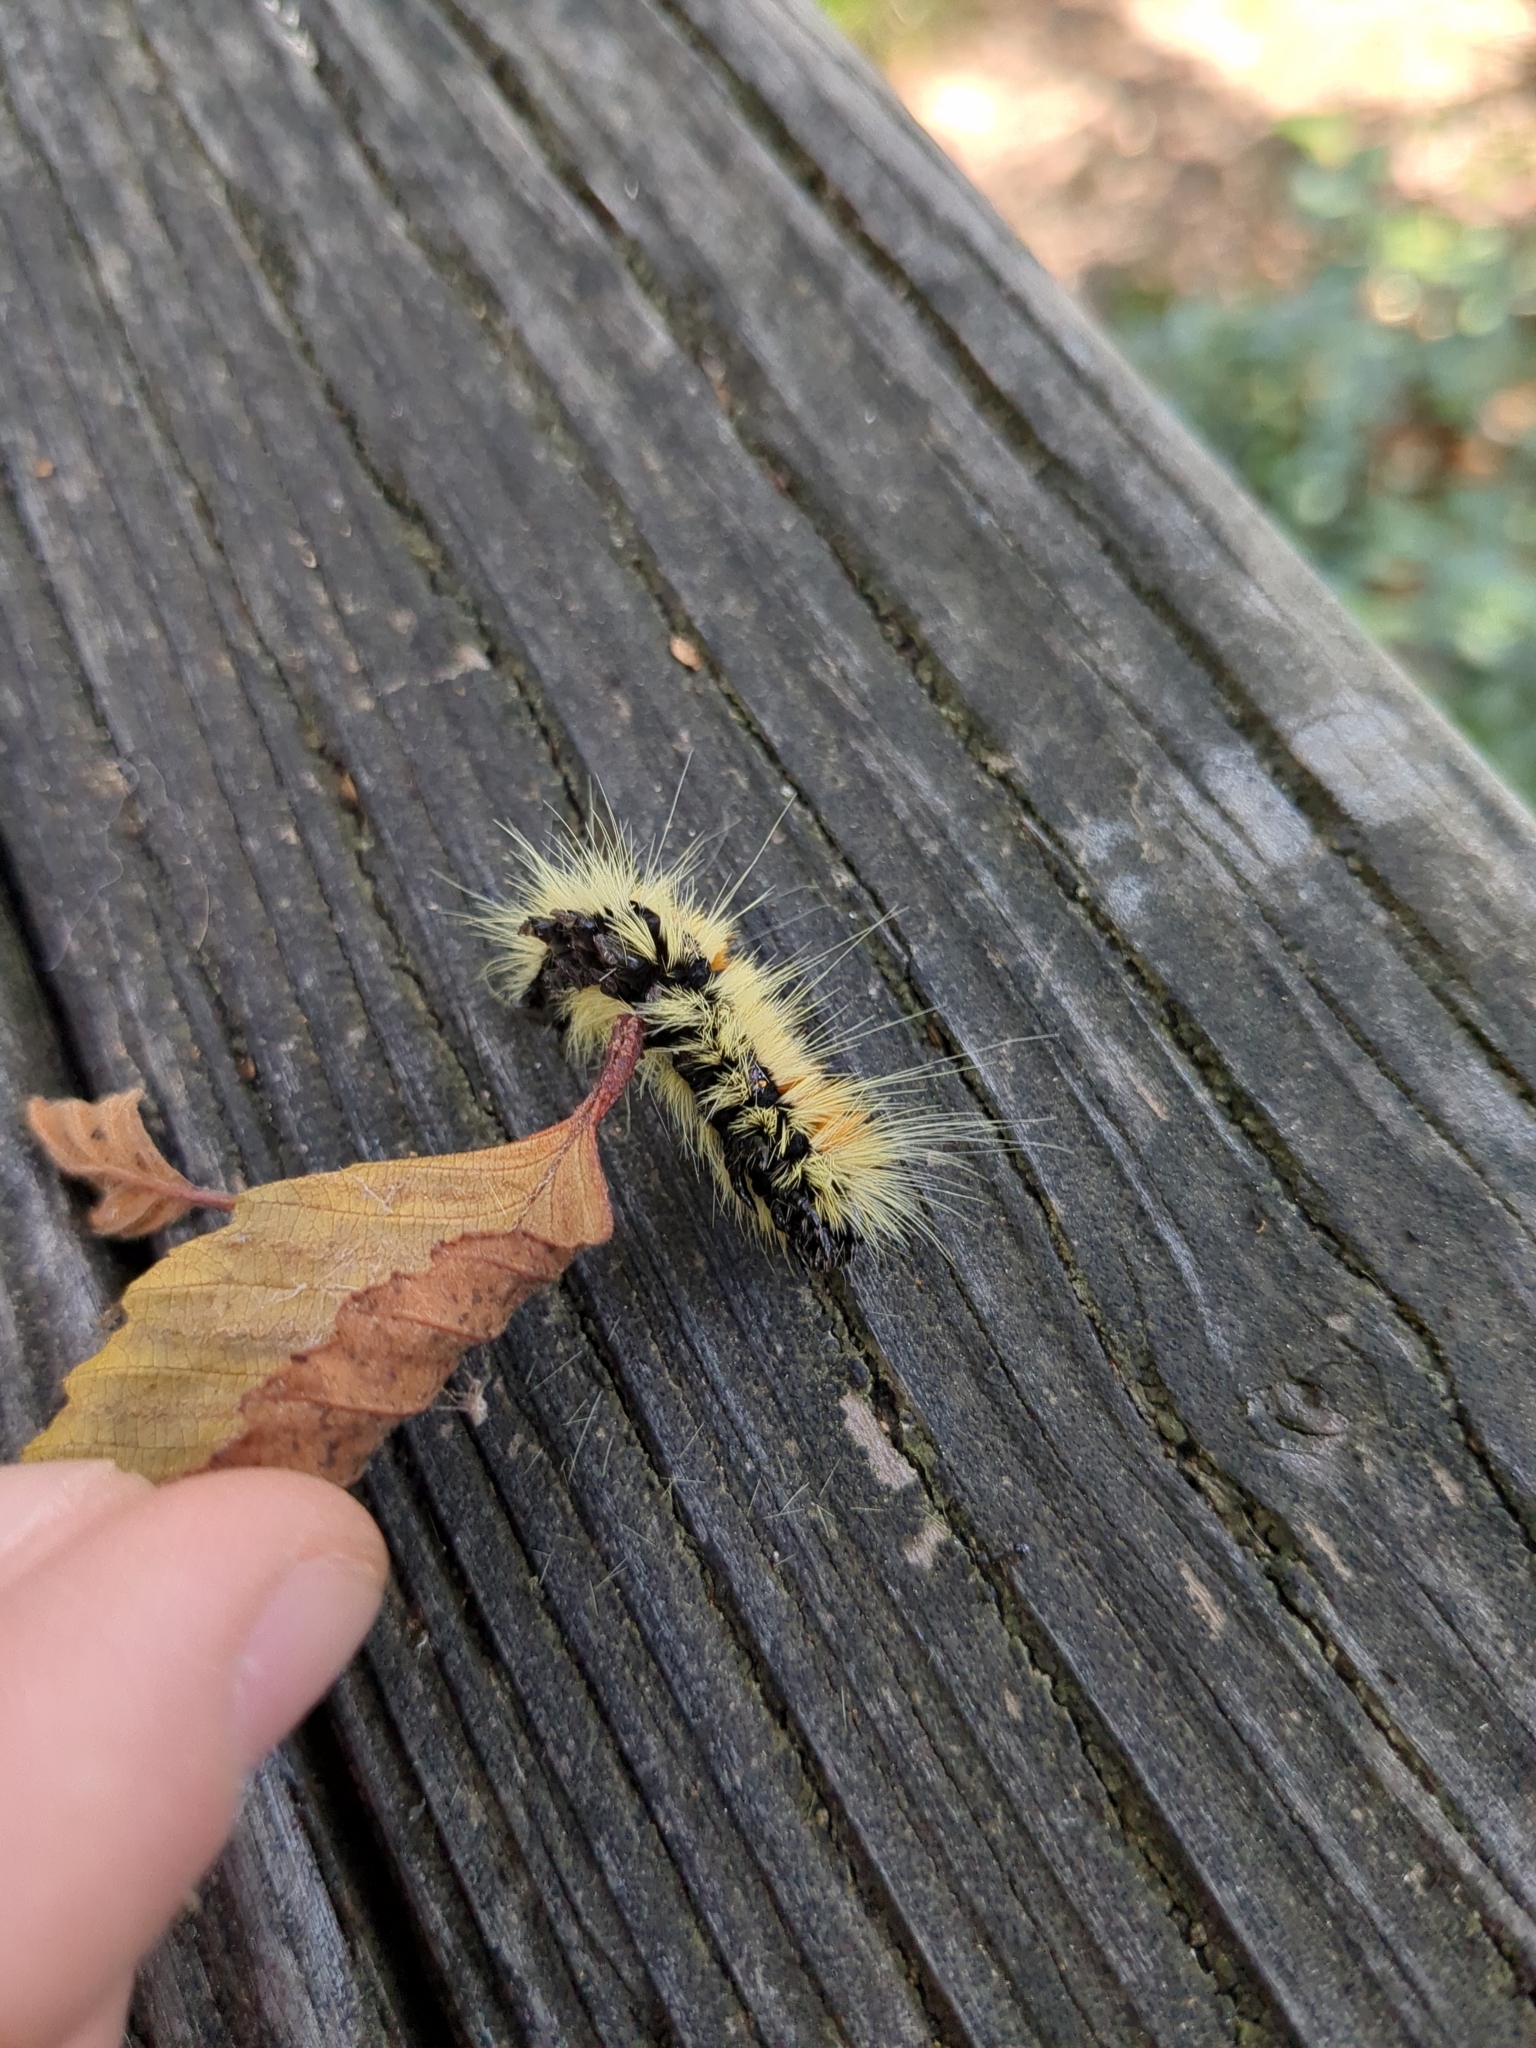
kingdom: Animalia
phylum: Arthropoda
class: Insecta
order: Lepidoptera
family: Noctuidae
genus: Acronicta
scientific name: Acronicta insita
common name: Large gray dagger
